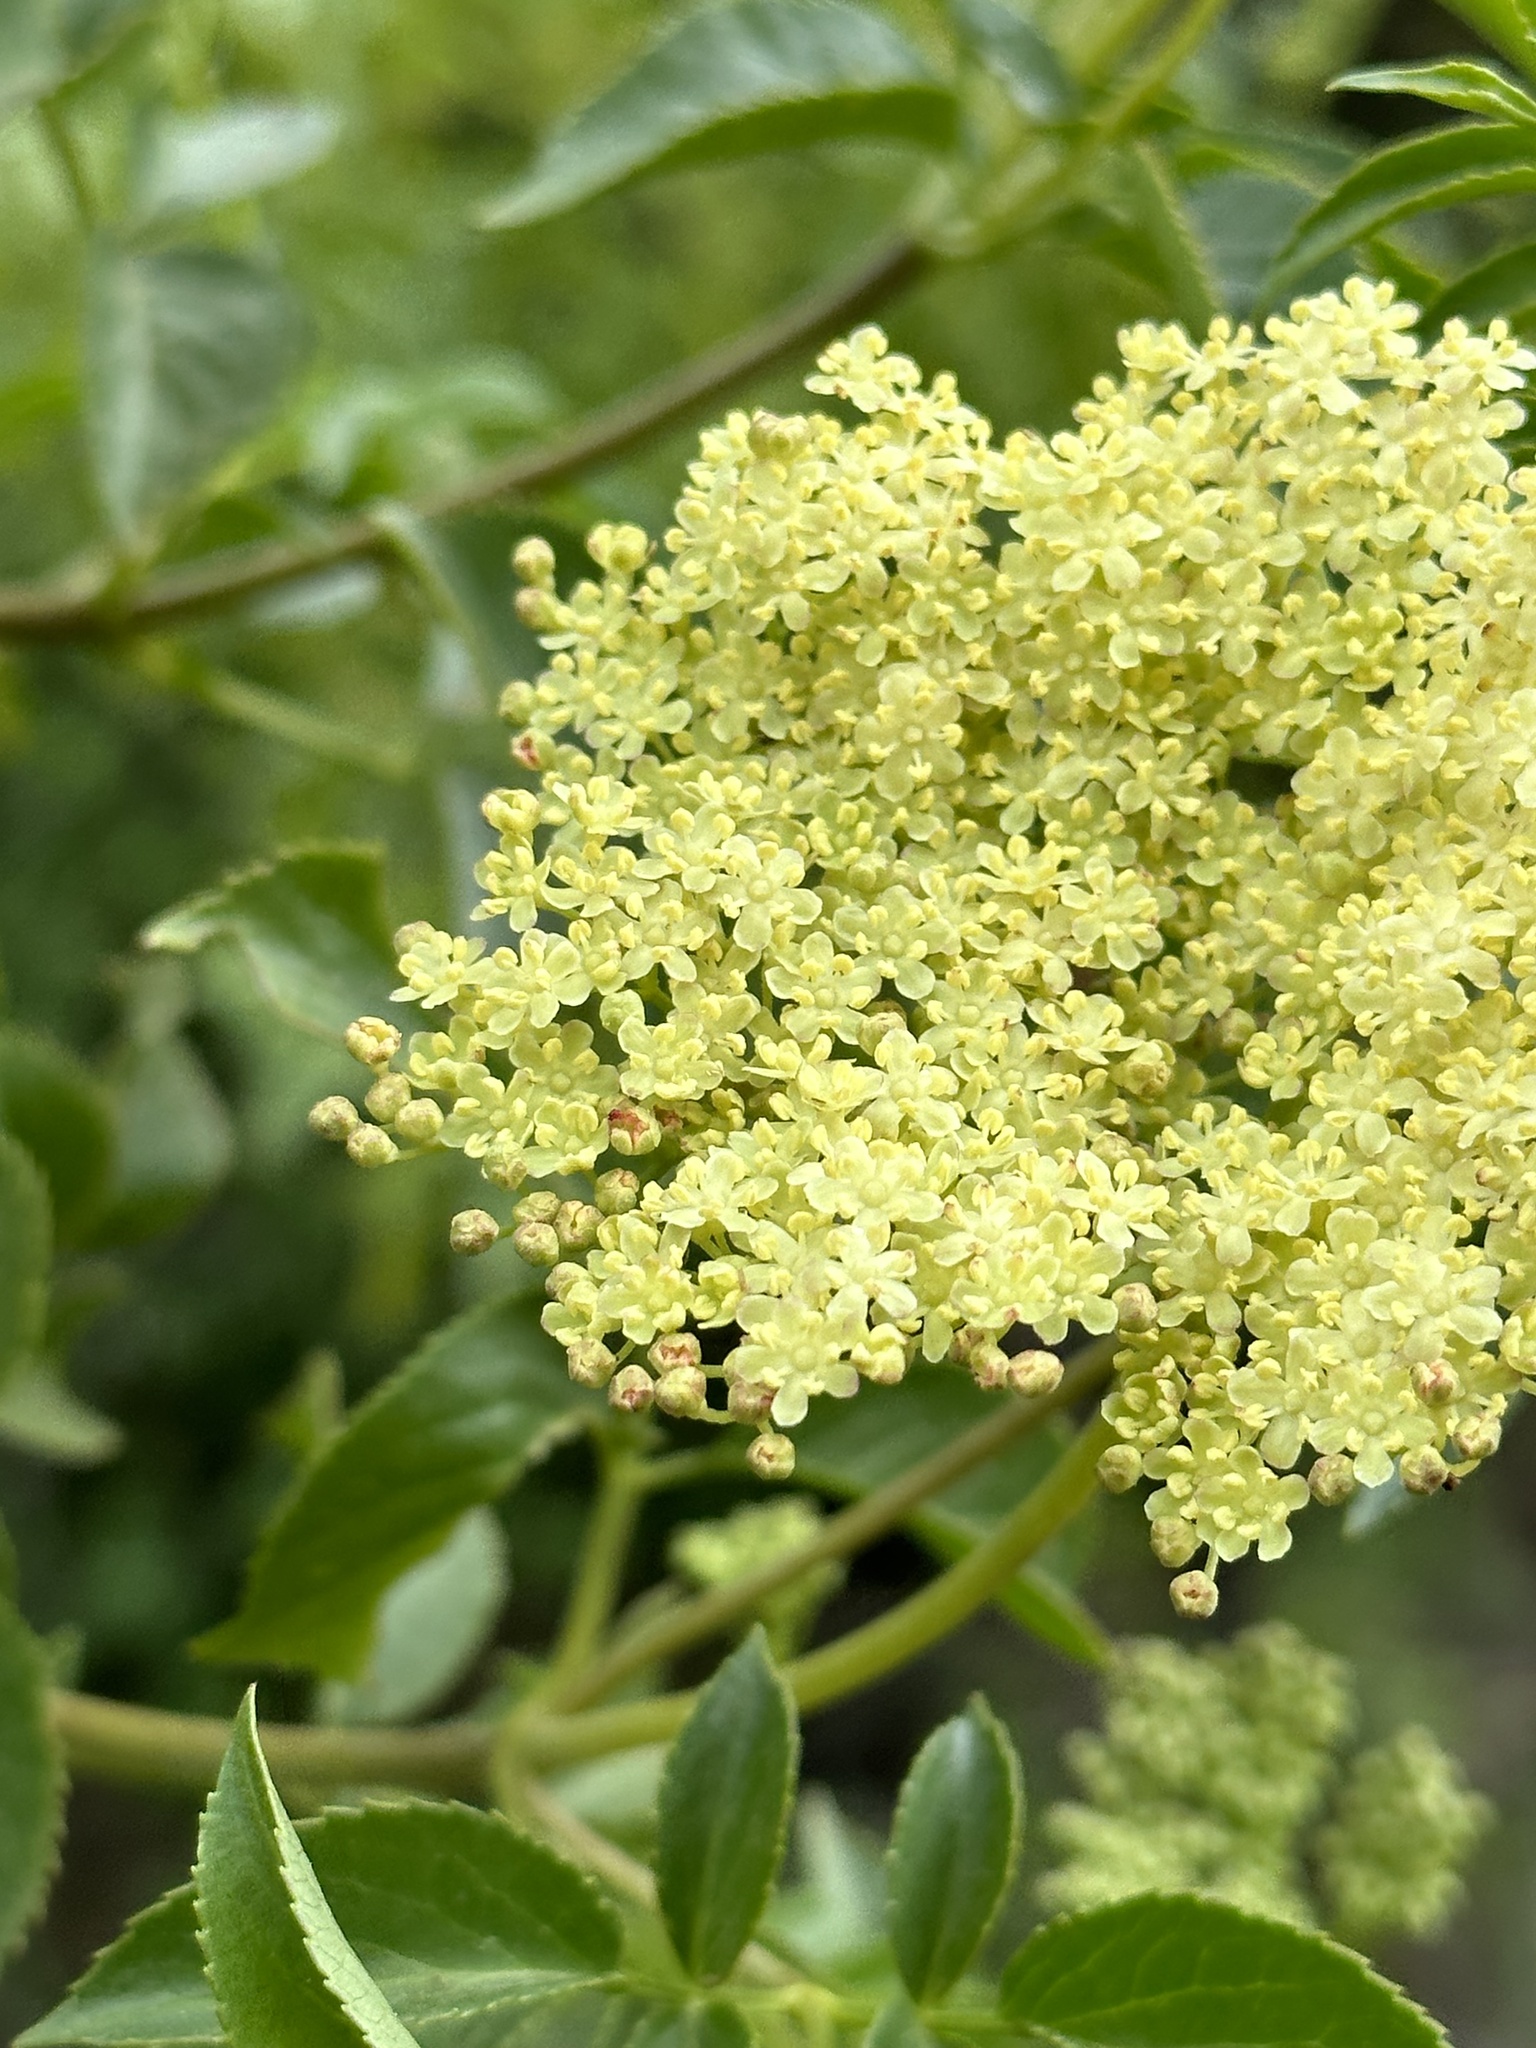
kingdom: Plantae
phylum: Tracheophyta
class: Magnoliopsida
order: Dipsacales
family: Viburnaceae
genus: Sambucus
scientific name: Sambucus cerulea
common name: Blue elder
